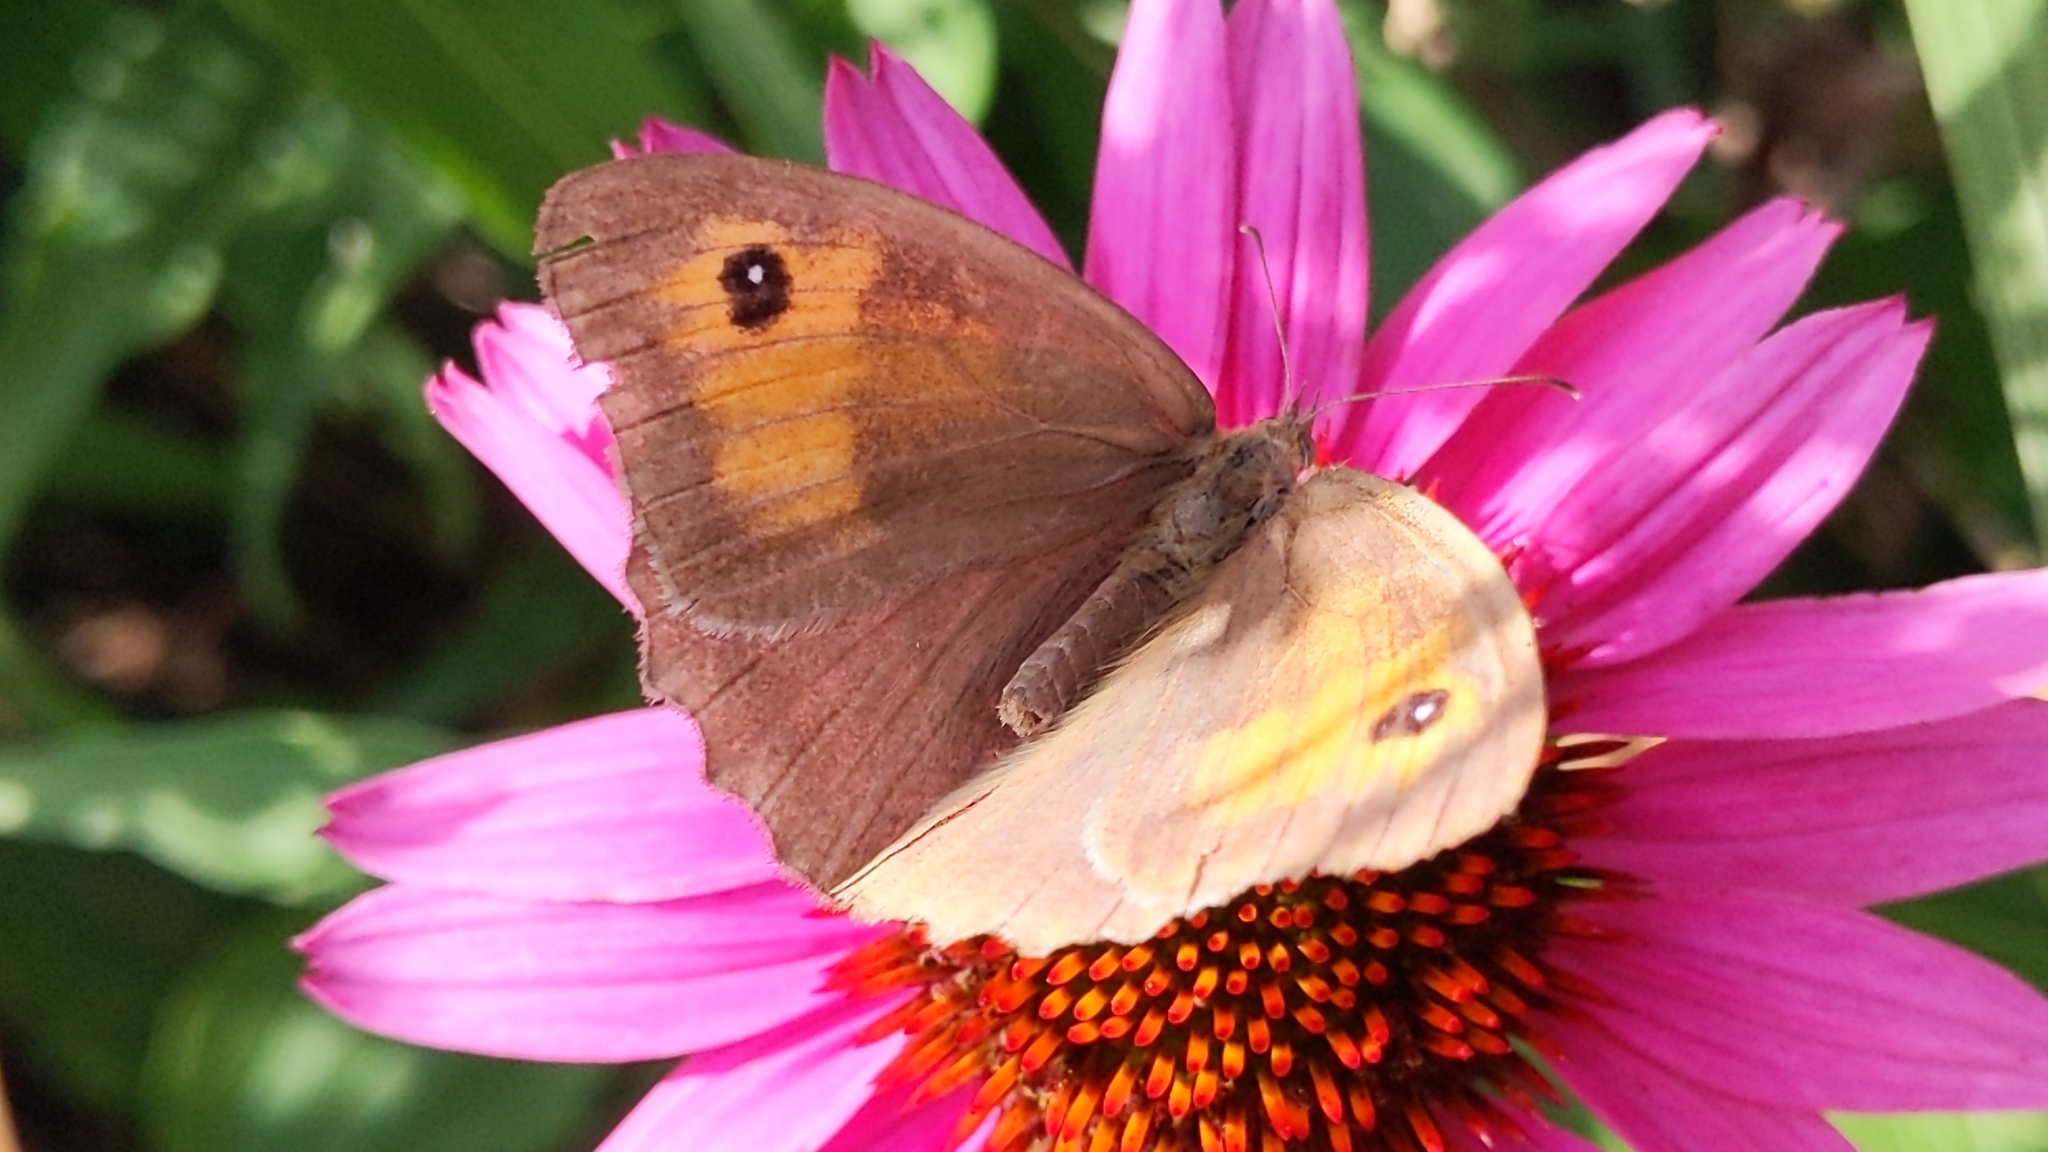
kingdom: Animalia
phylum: Arthropoda
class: Insecta
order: Lepidoptera
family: Nymphalidae
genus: Maniola
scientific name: Maniola jurtina
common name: Meadow brown
